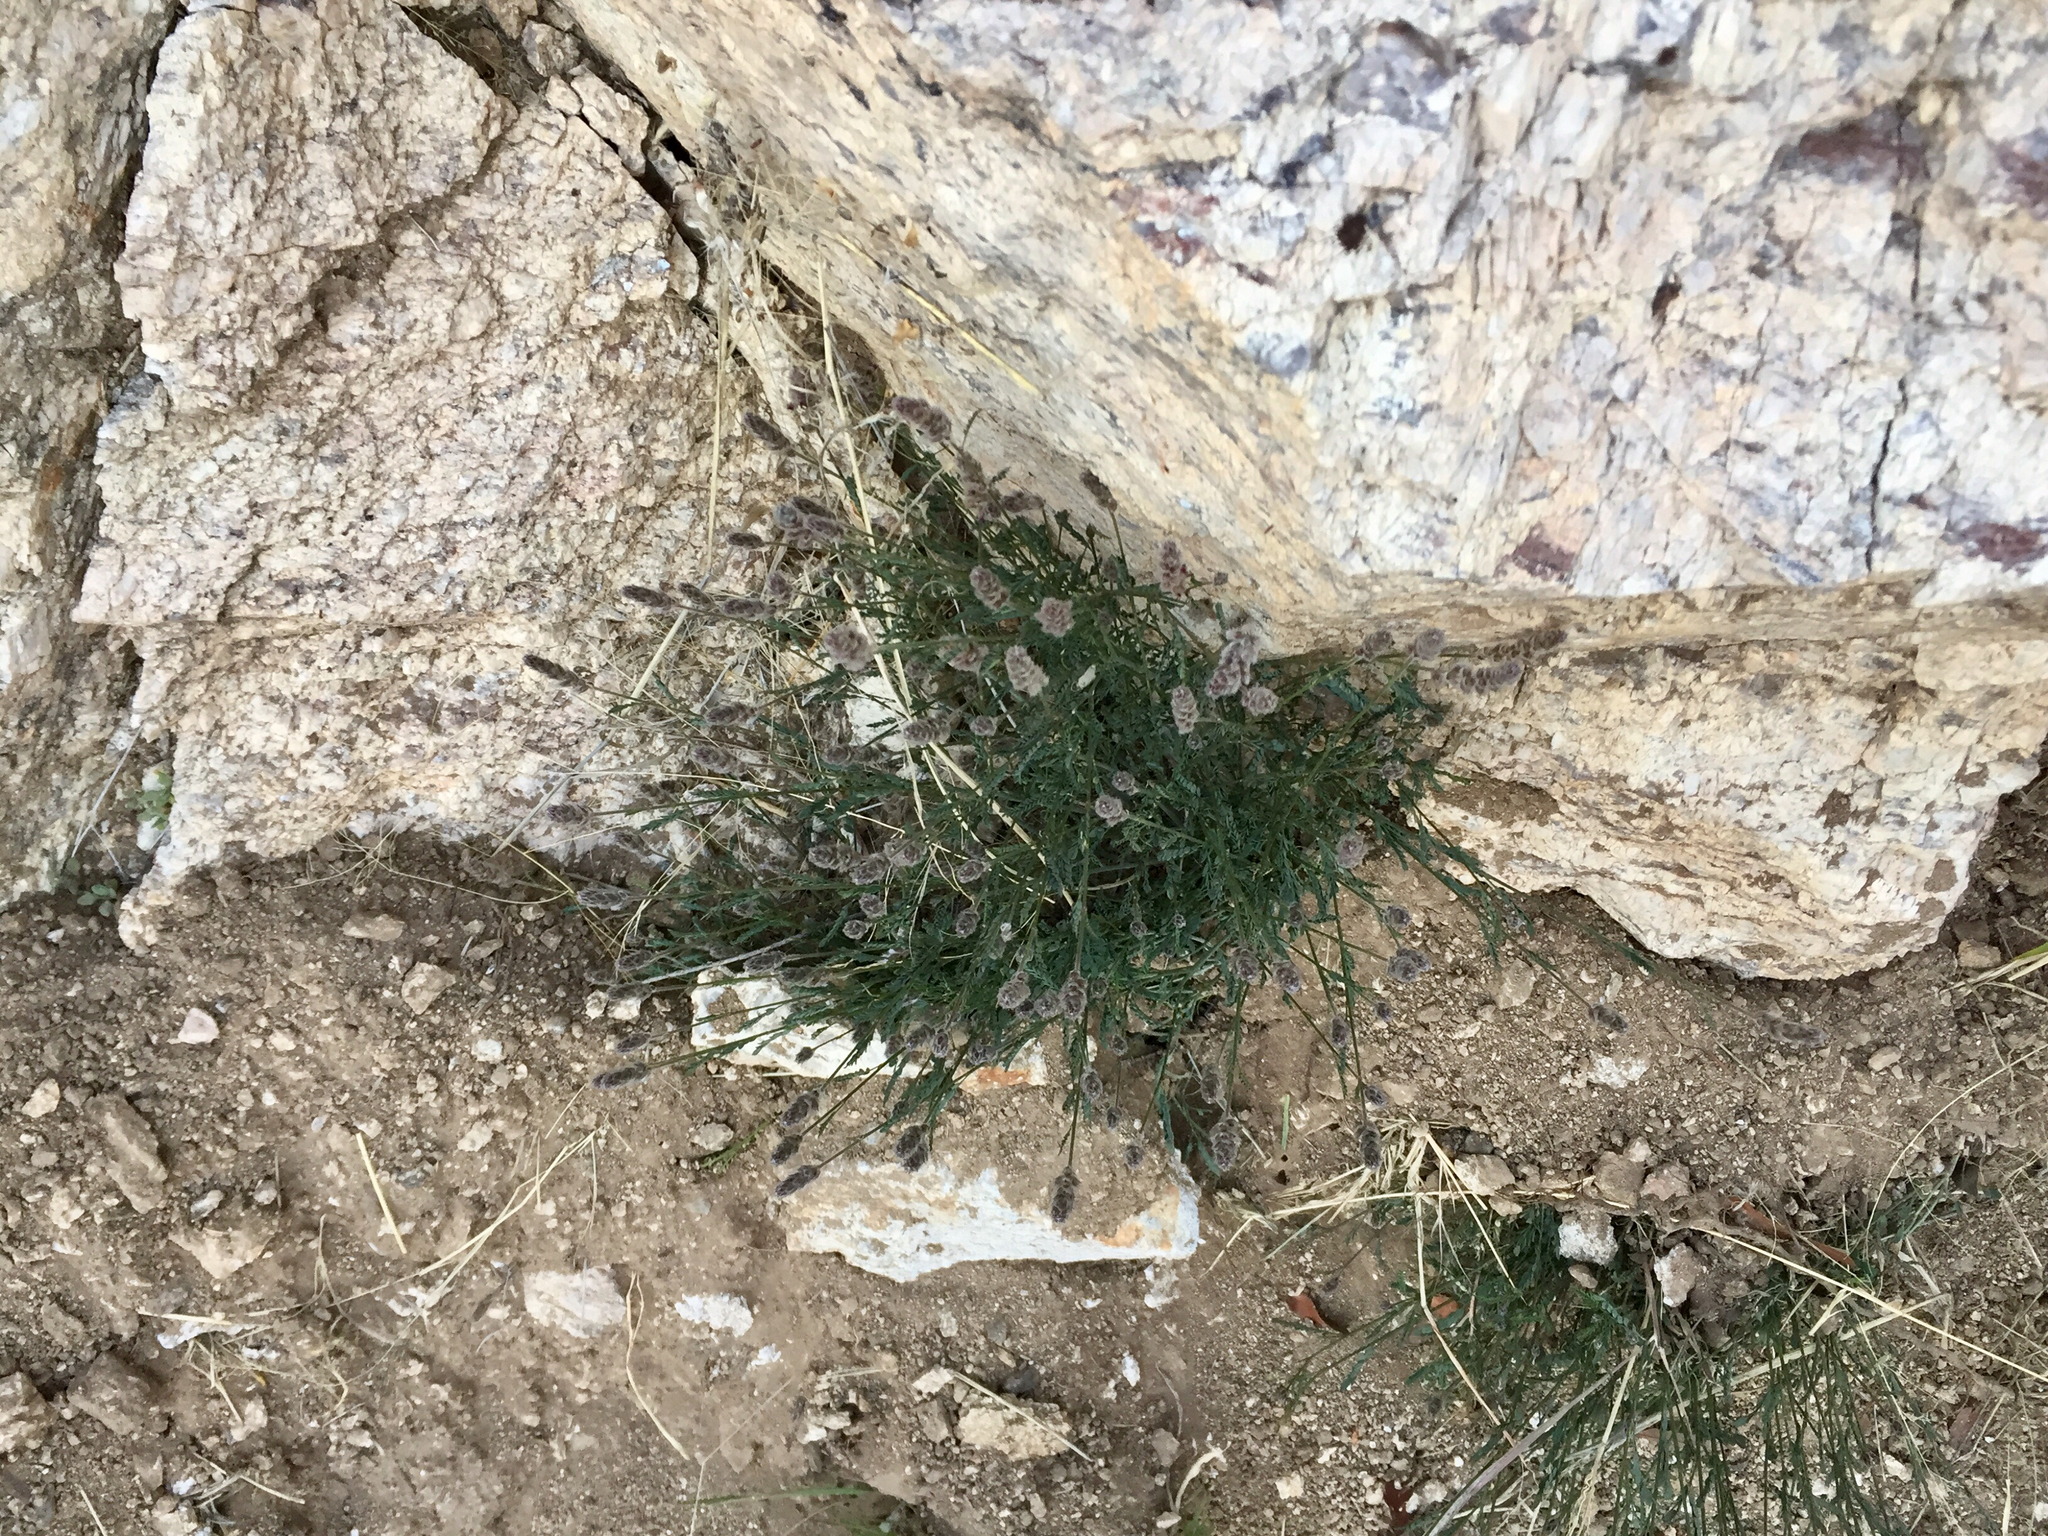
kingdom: Plantae
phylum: Tracheophyta
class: Magnoliopsida
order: Fabales
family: Fabaceae
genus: Dalea
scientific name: Dalea pringlei
